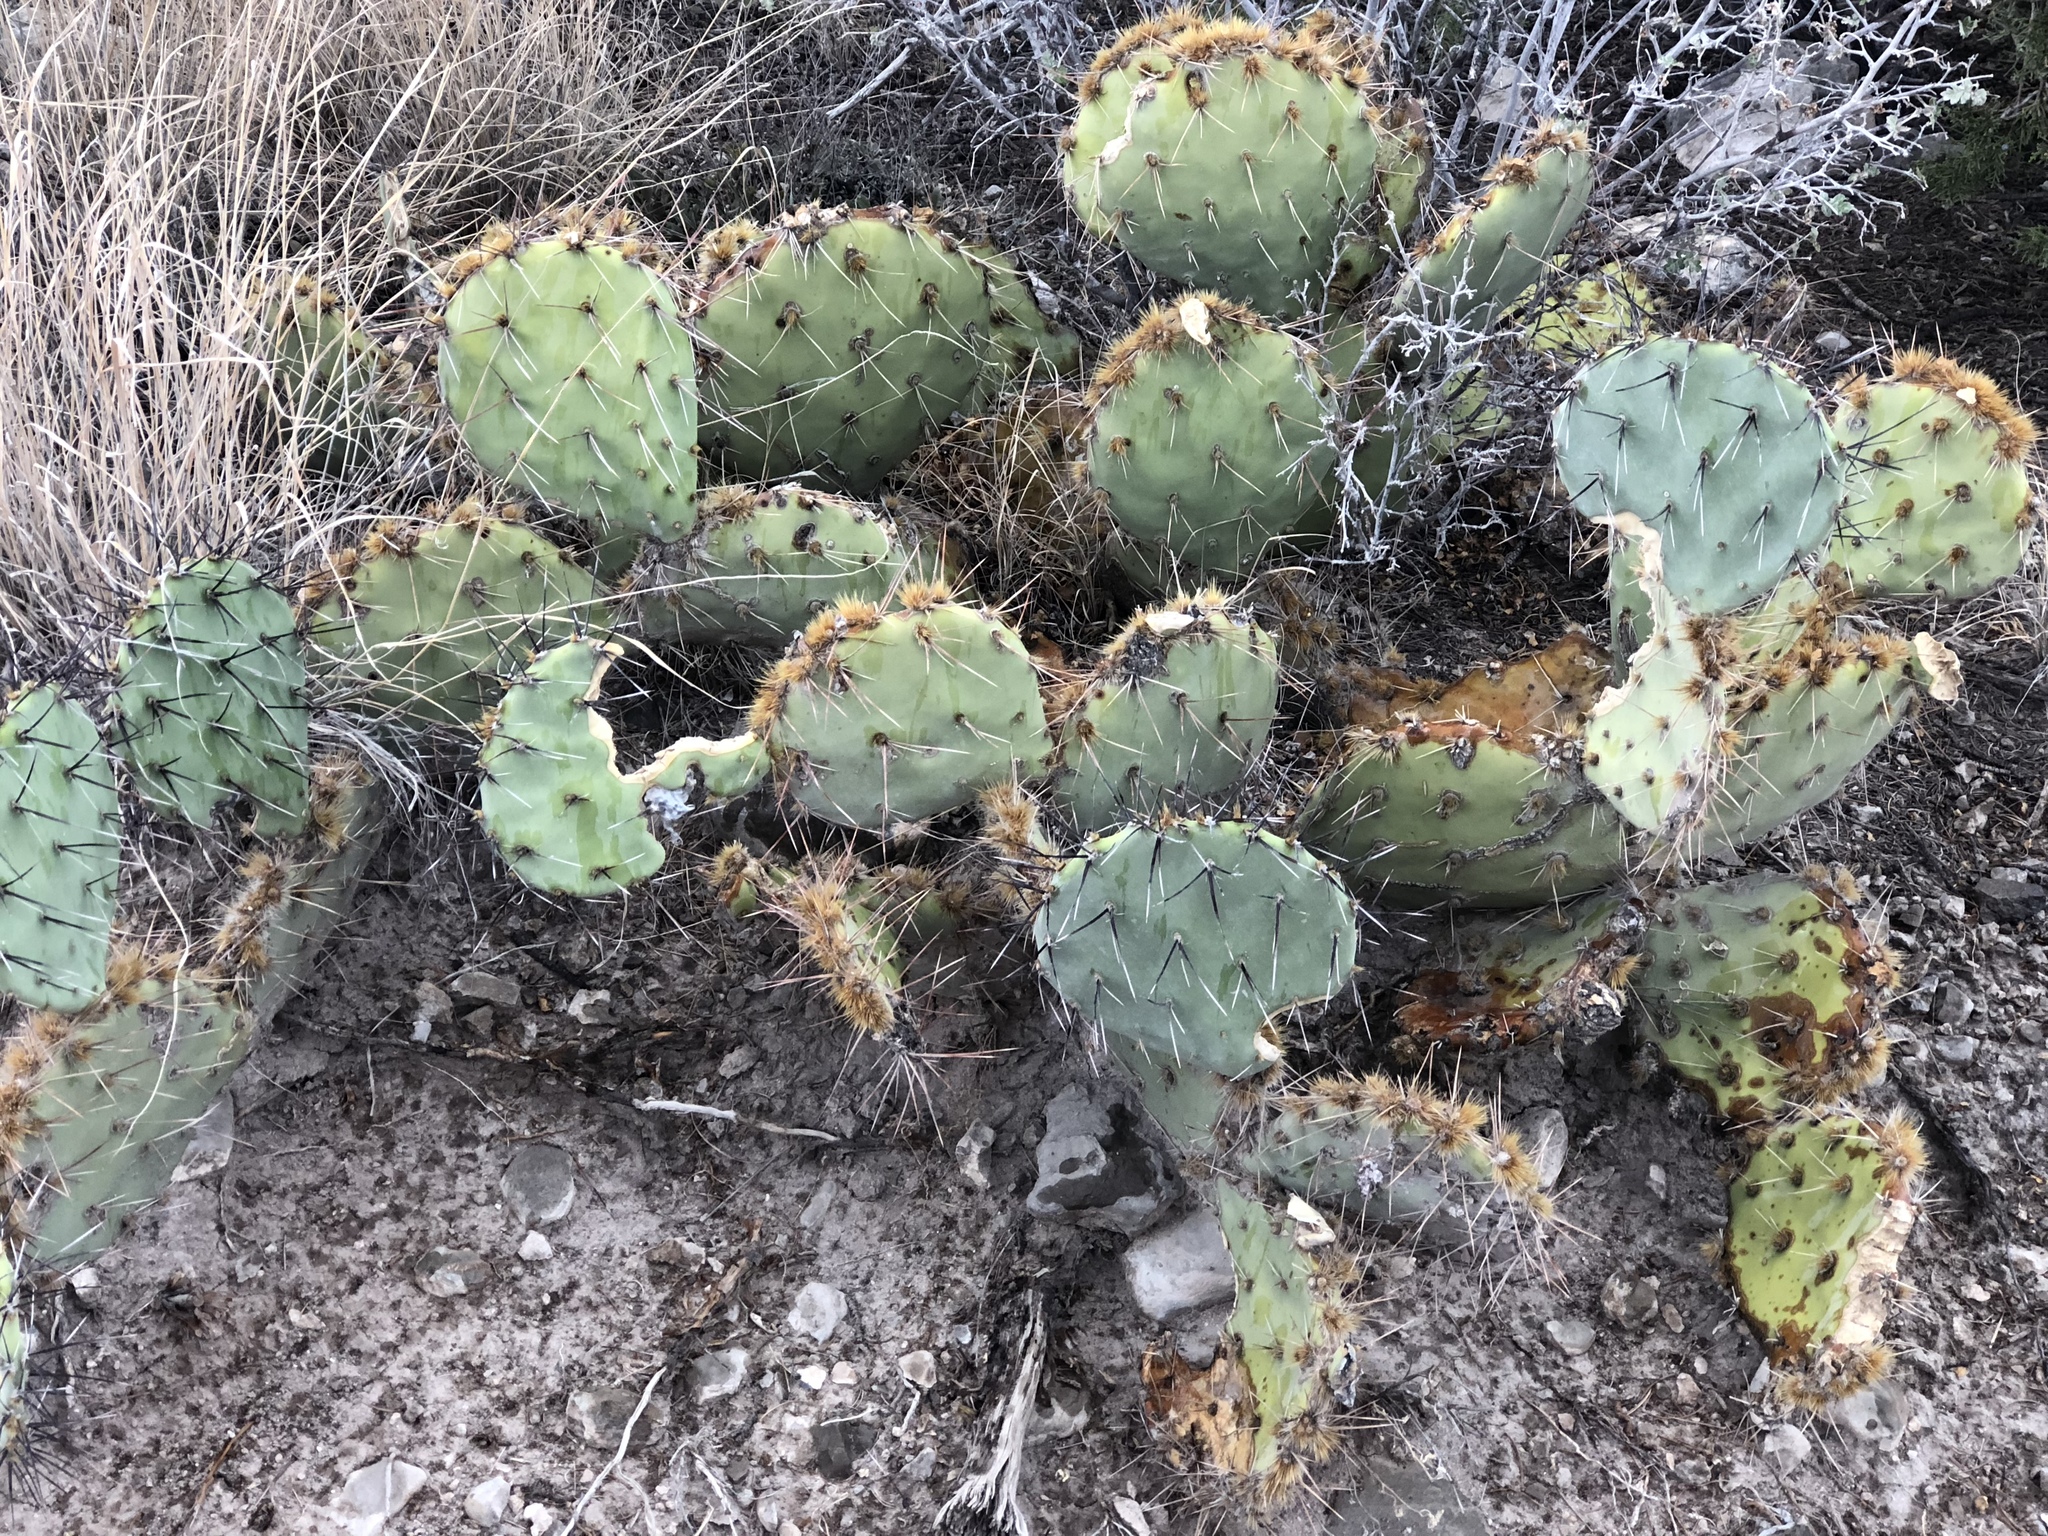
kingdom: Plantae
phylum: Tracheophyta
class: Magnoliopsida
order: Caryophyllales
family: Cactaceae
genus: Opuntia
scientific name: Opuntia phaeacantha
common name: New mexico prickly-pear
